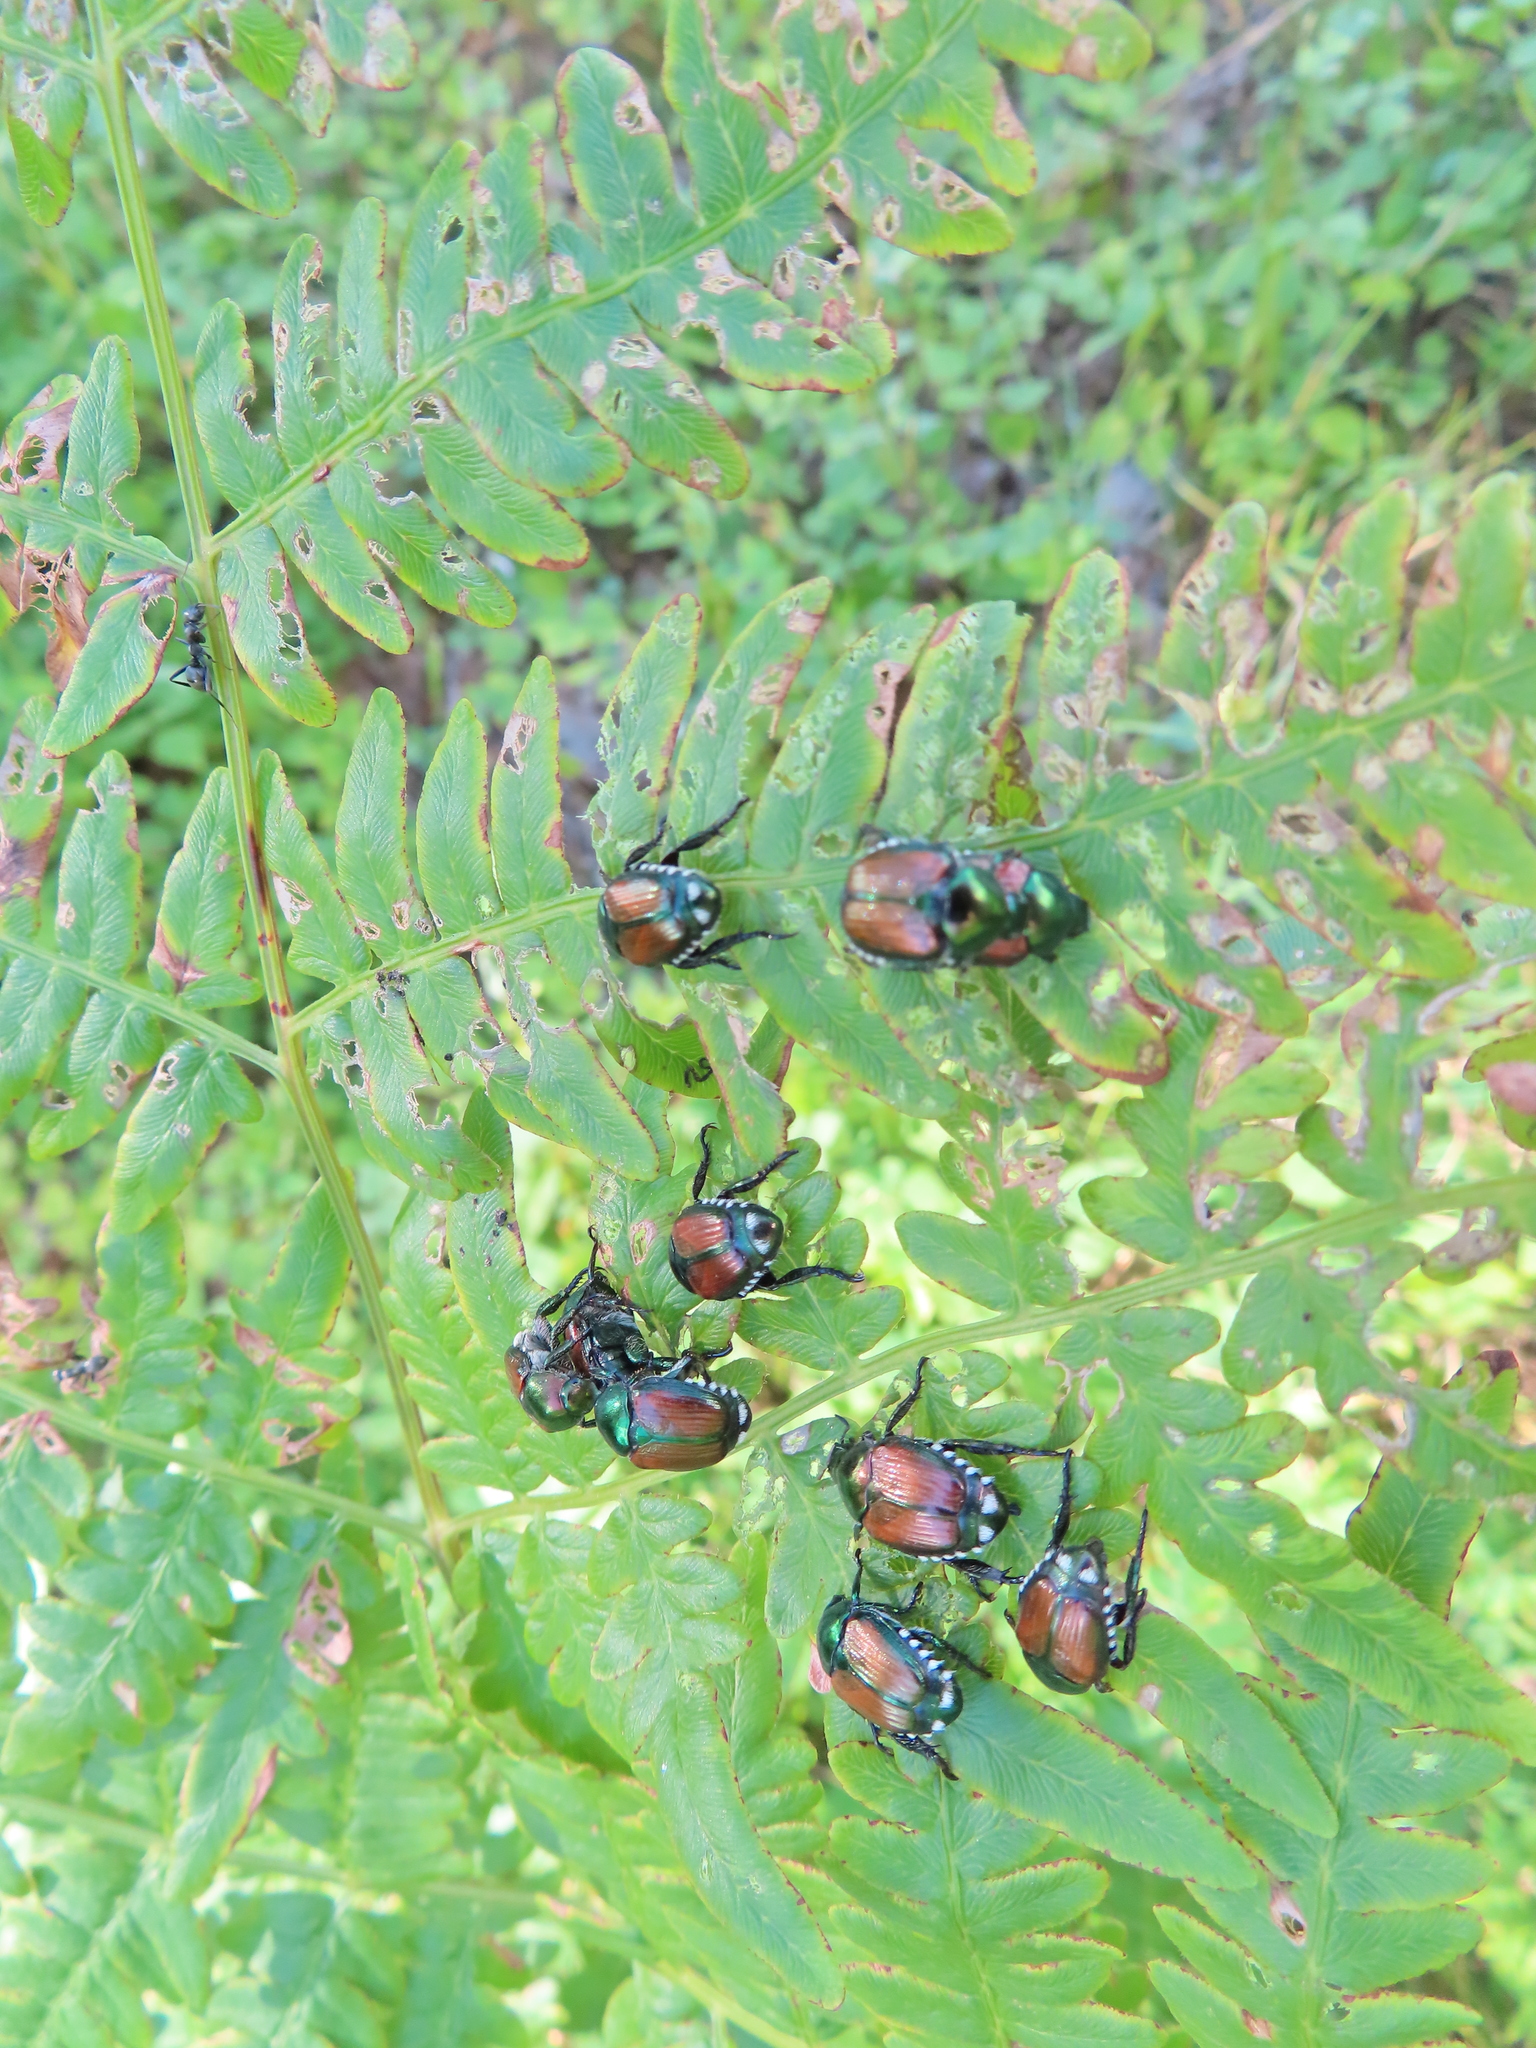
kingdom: Animalia
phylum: Arthropoda
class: Insecta
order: Coleoptera
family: Scarabaeidae
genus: Popillia
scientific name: Popillia japonica
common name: Japanese beetle
